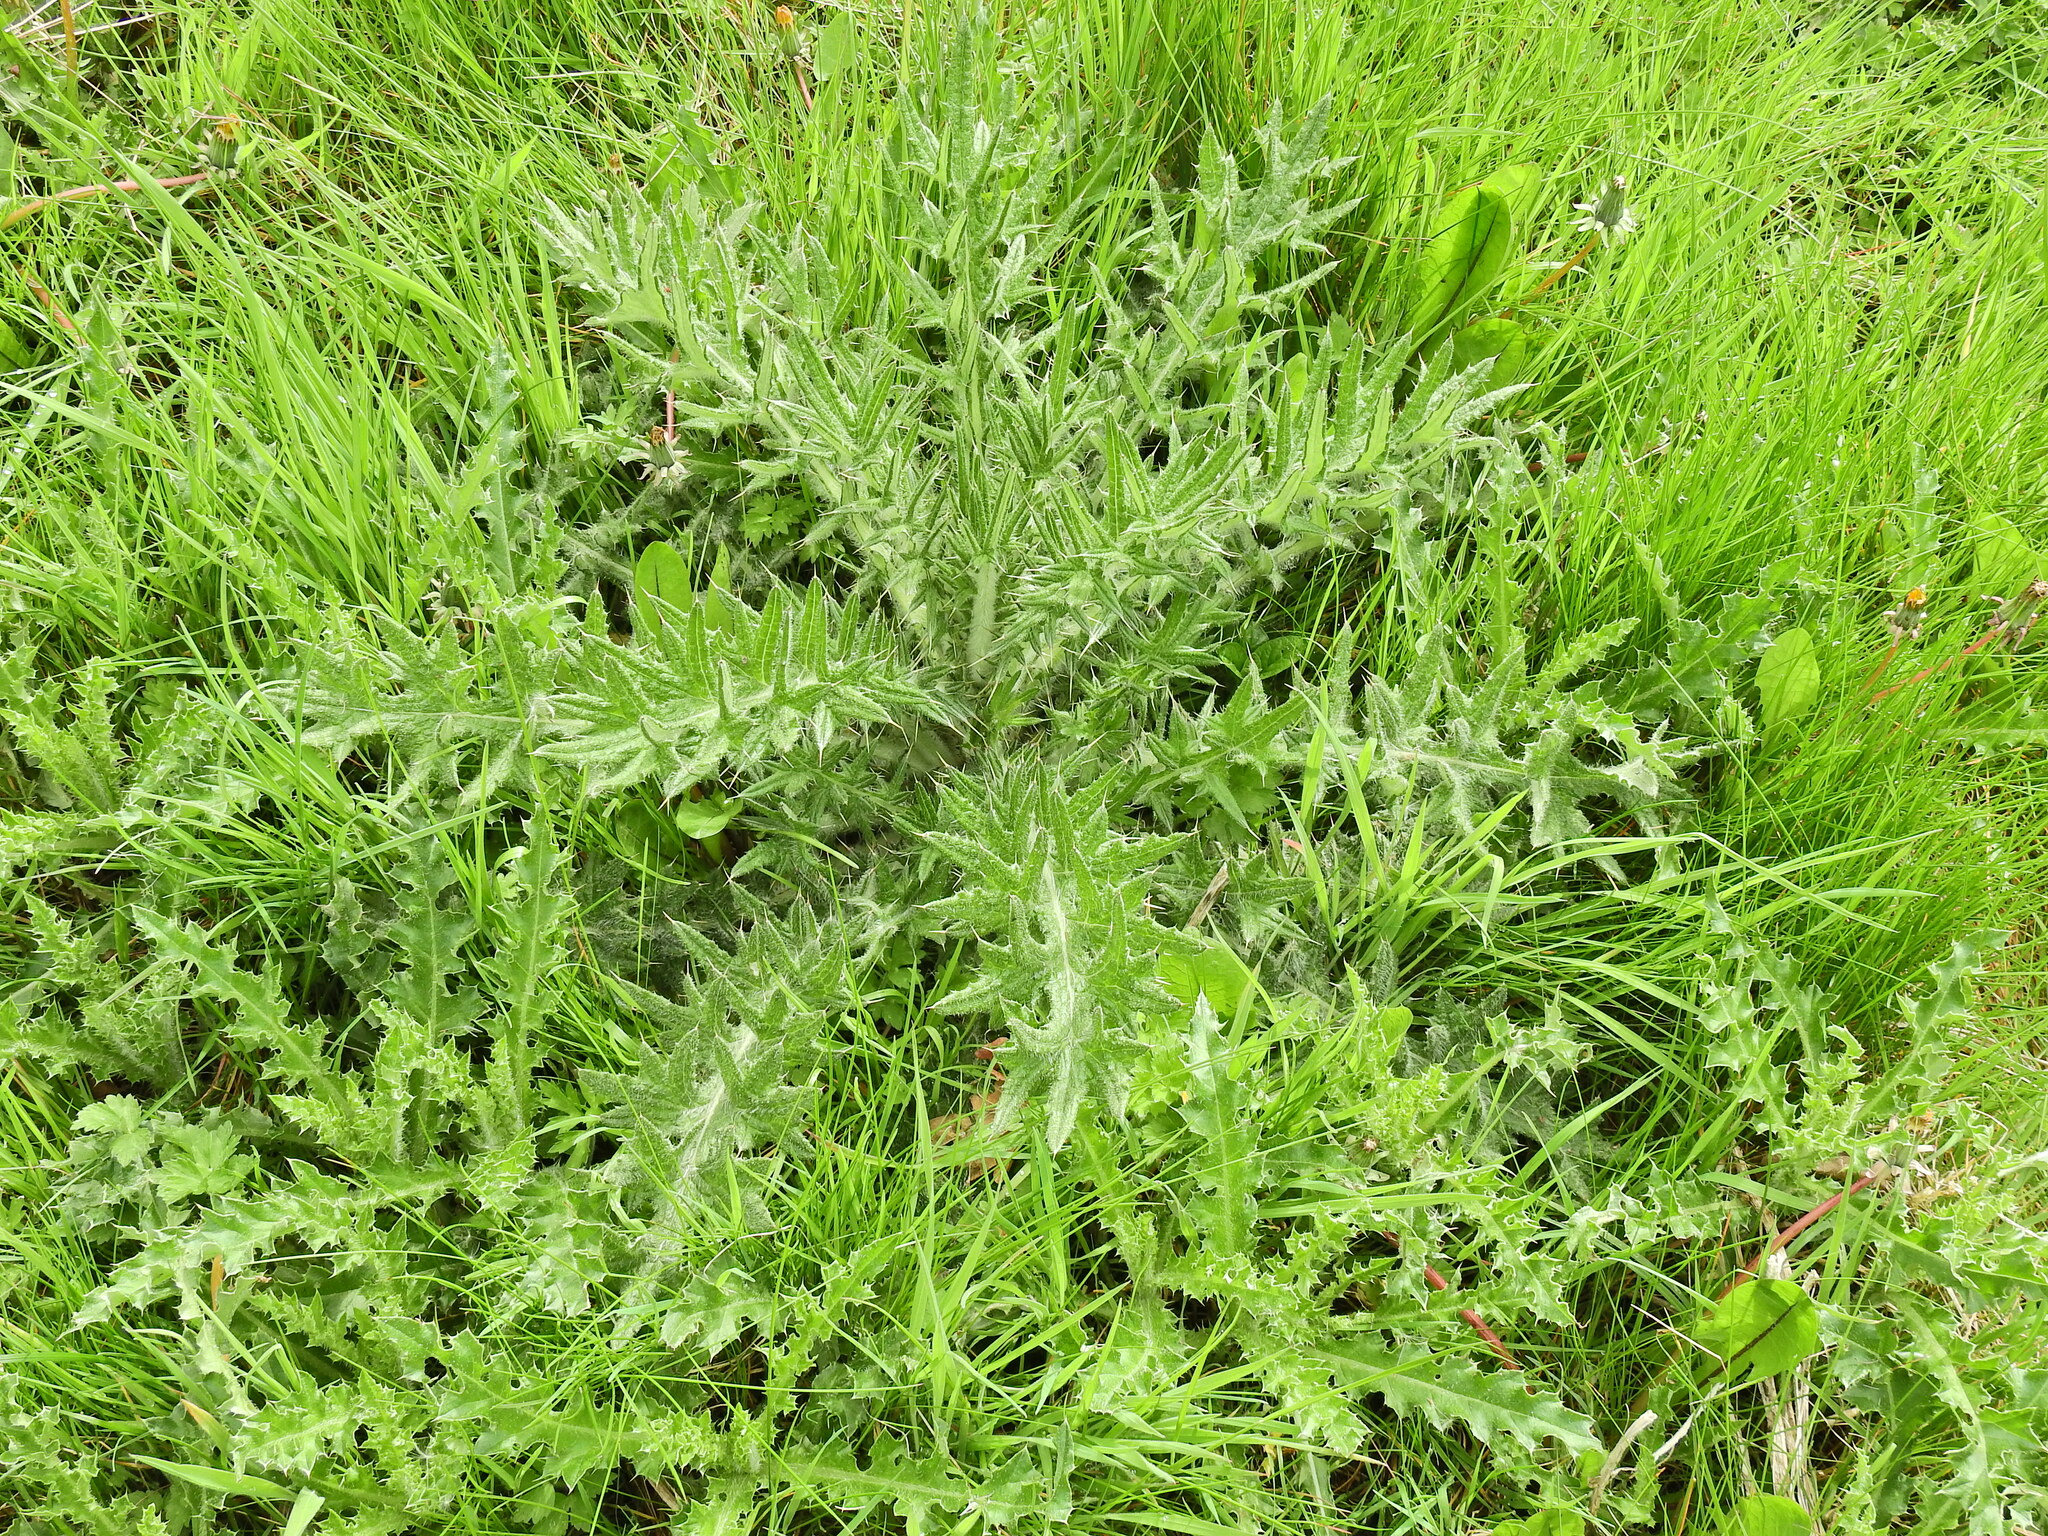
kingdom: Plantae
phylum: Tracheophyta
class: Magnoliopsida
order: Asterales
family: Asteraceae
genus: Cirsium
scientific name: Cirsium vulgare
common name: Bull thistle
